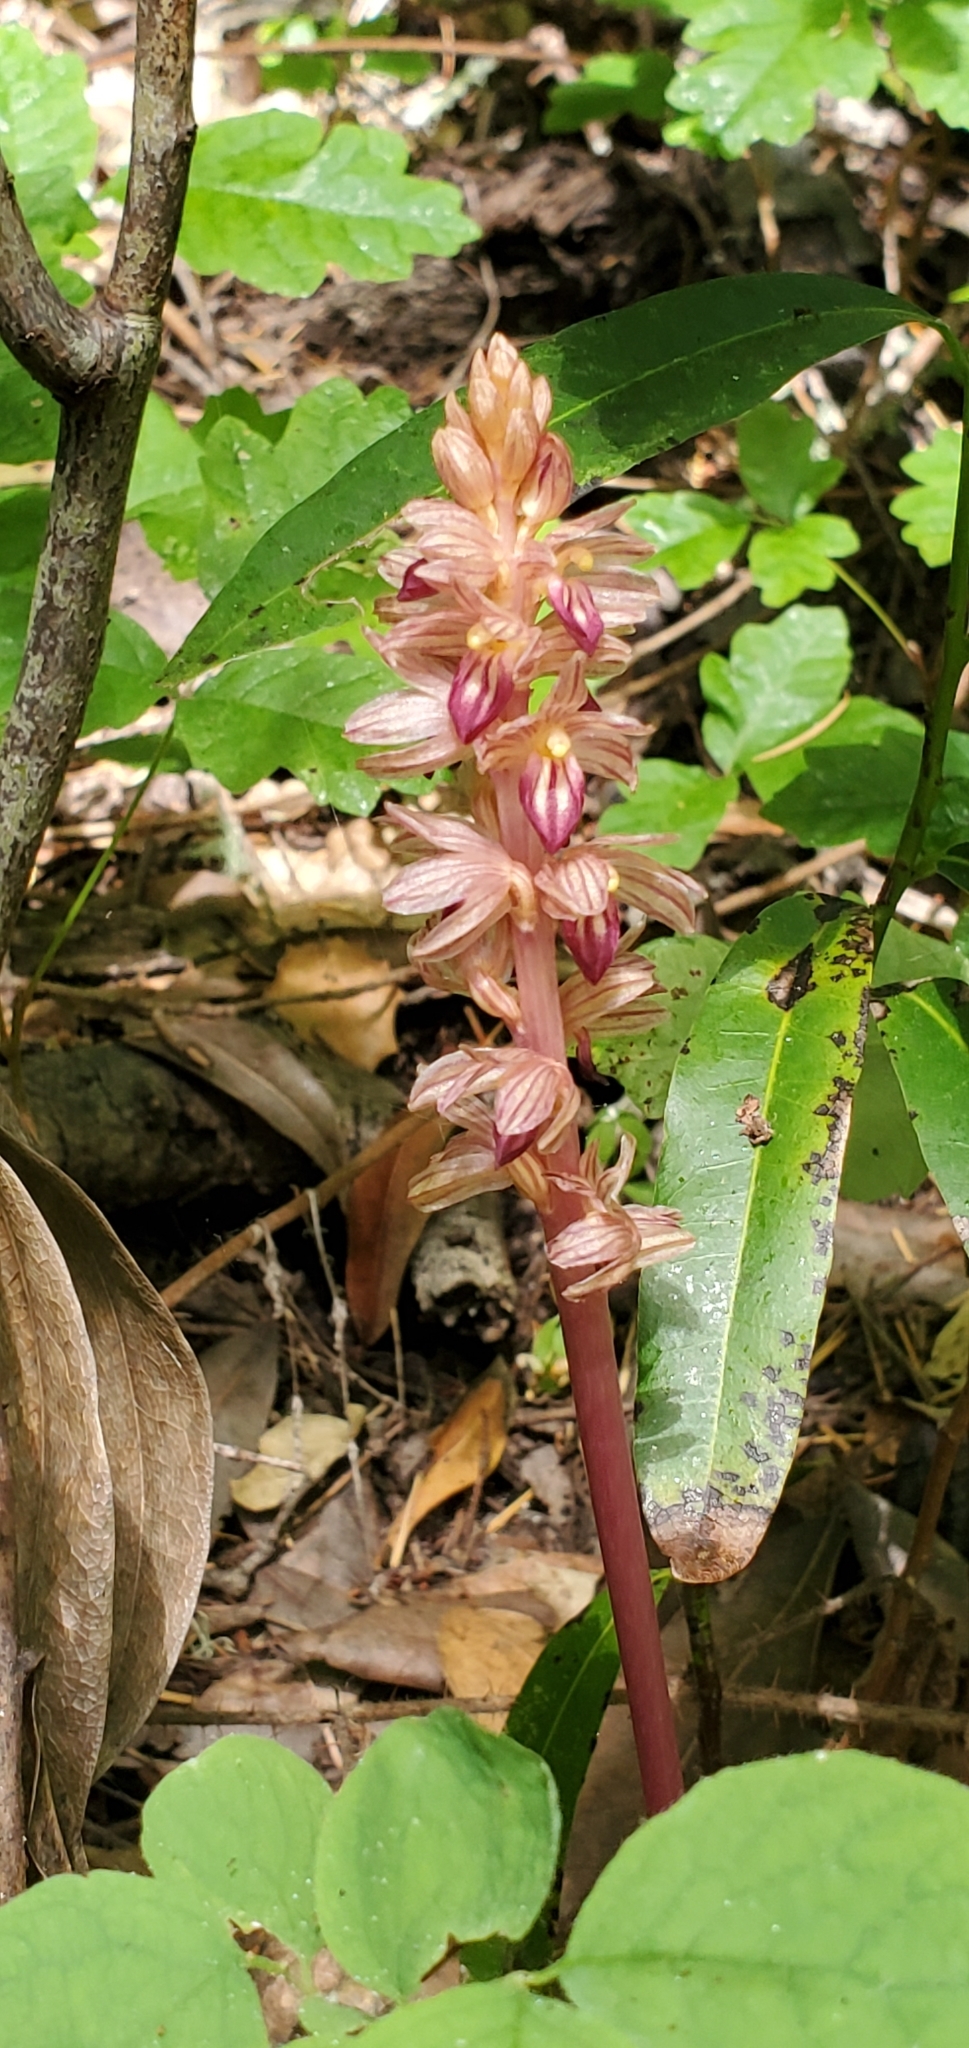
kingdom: Plantae
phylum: Tracheophyta
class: Liliopsida
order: Asparagales
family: Orchidaceae
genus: Corallorhiza
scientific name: Corallorhiza striata
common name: Hooded coralroot
